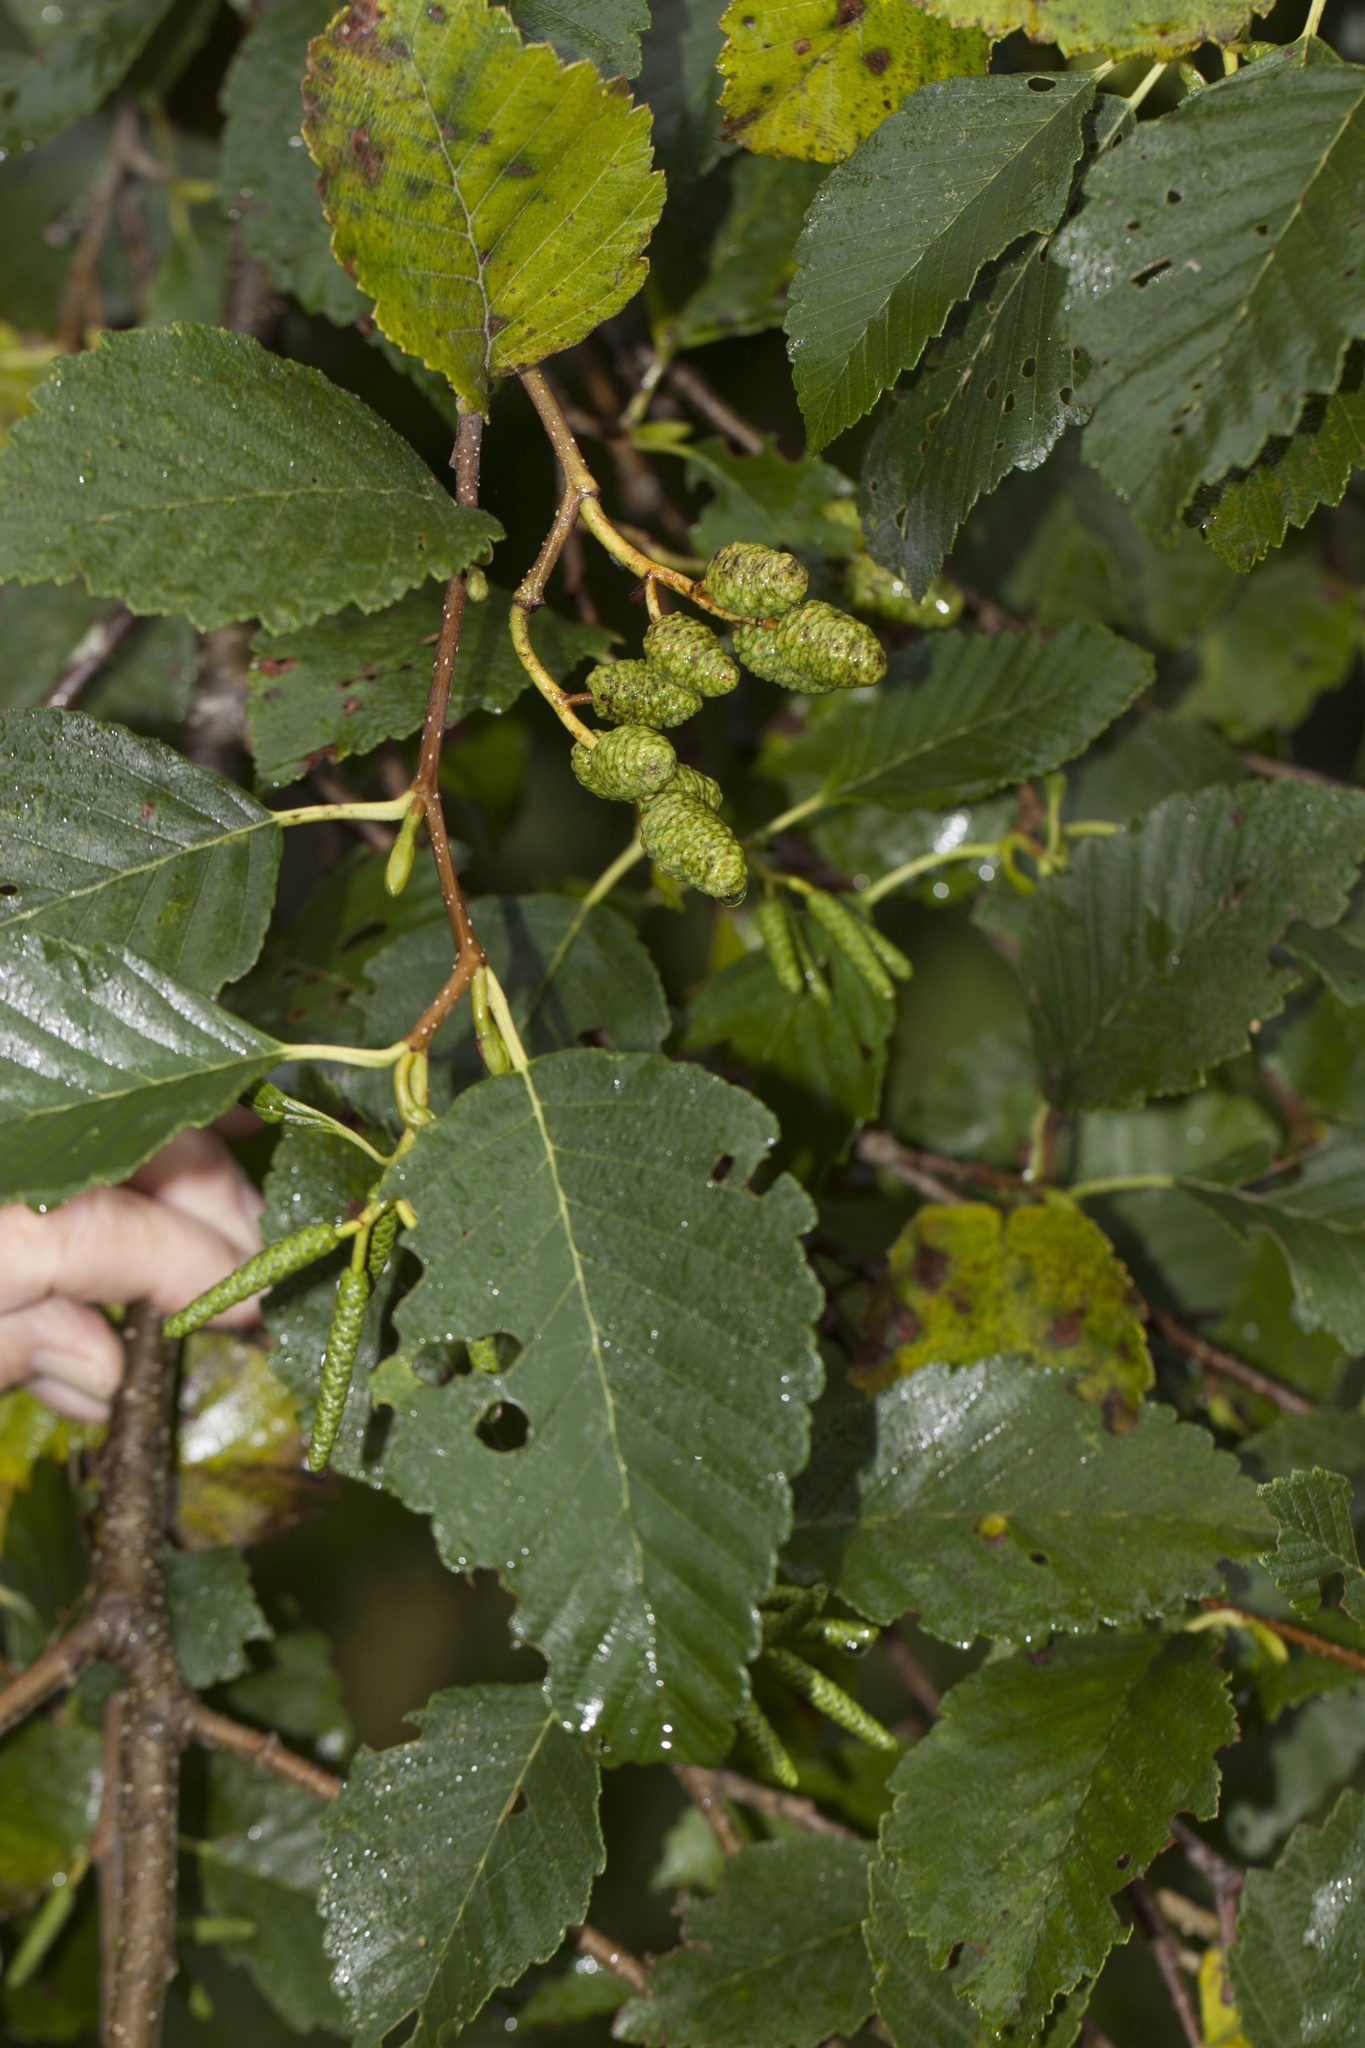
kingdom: Plantae
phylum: Tracheophyta
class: Magnoliopsida
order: Fagales
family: Betulaceae
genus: Alnus
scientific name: Alnus rubra
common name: Red alder
